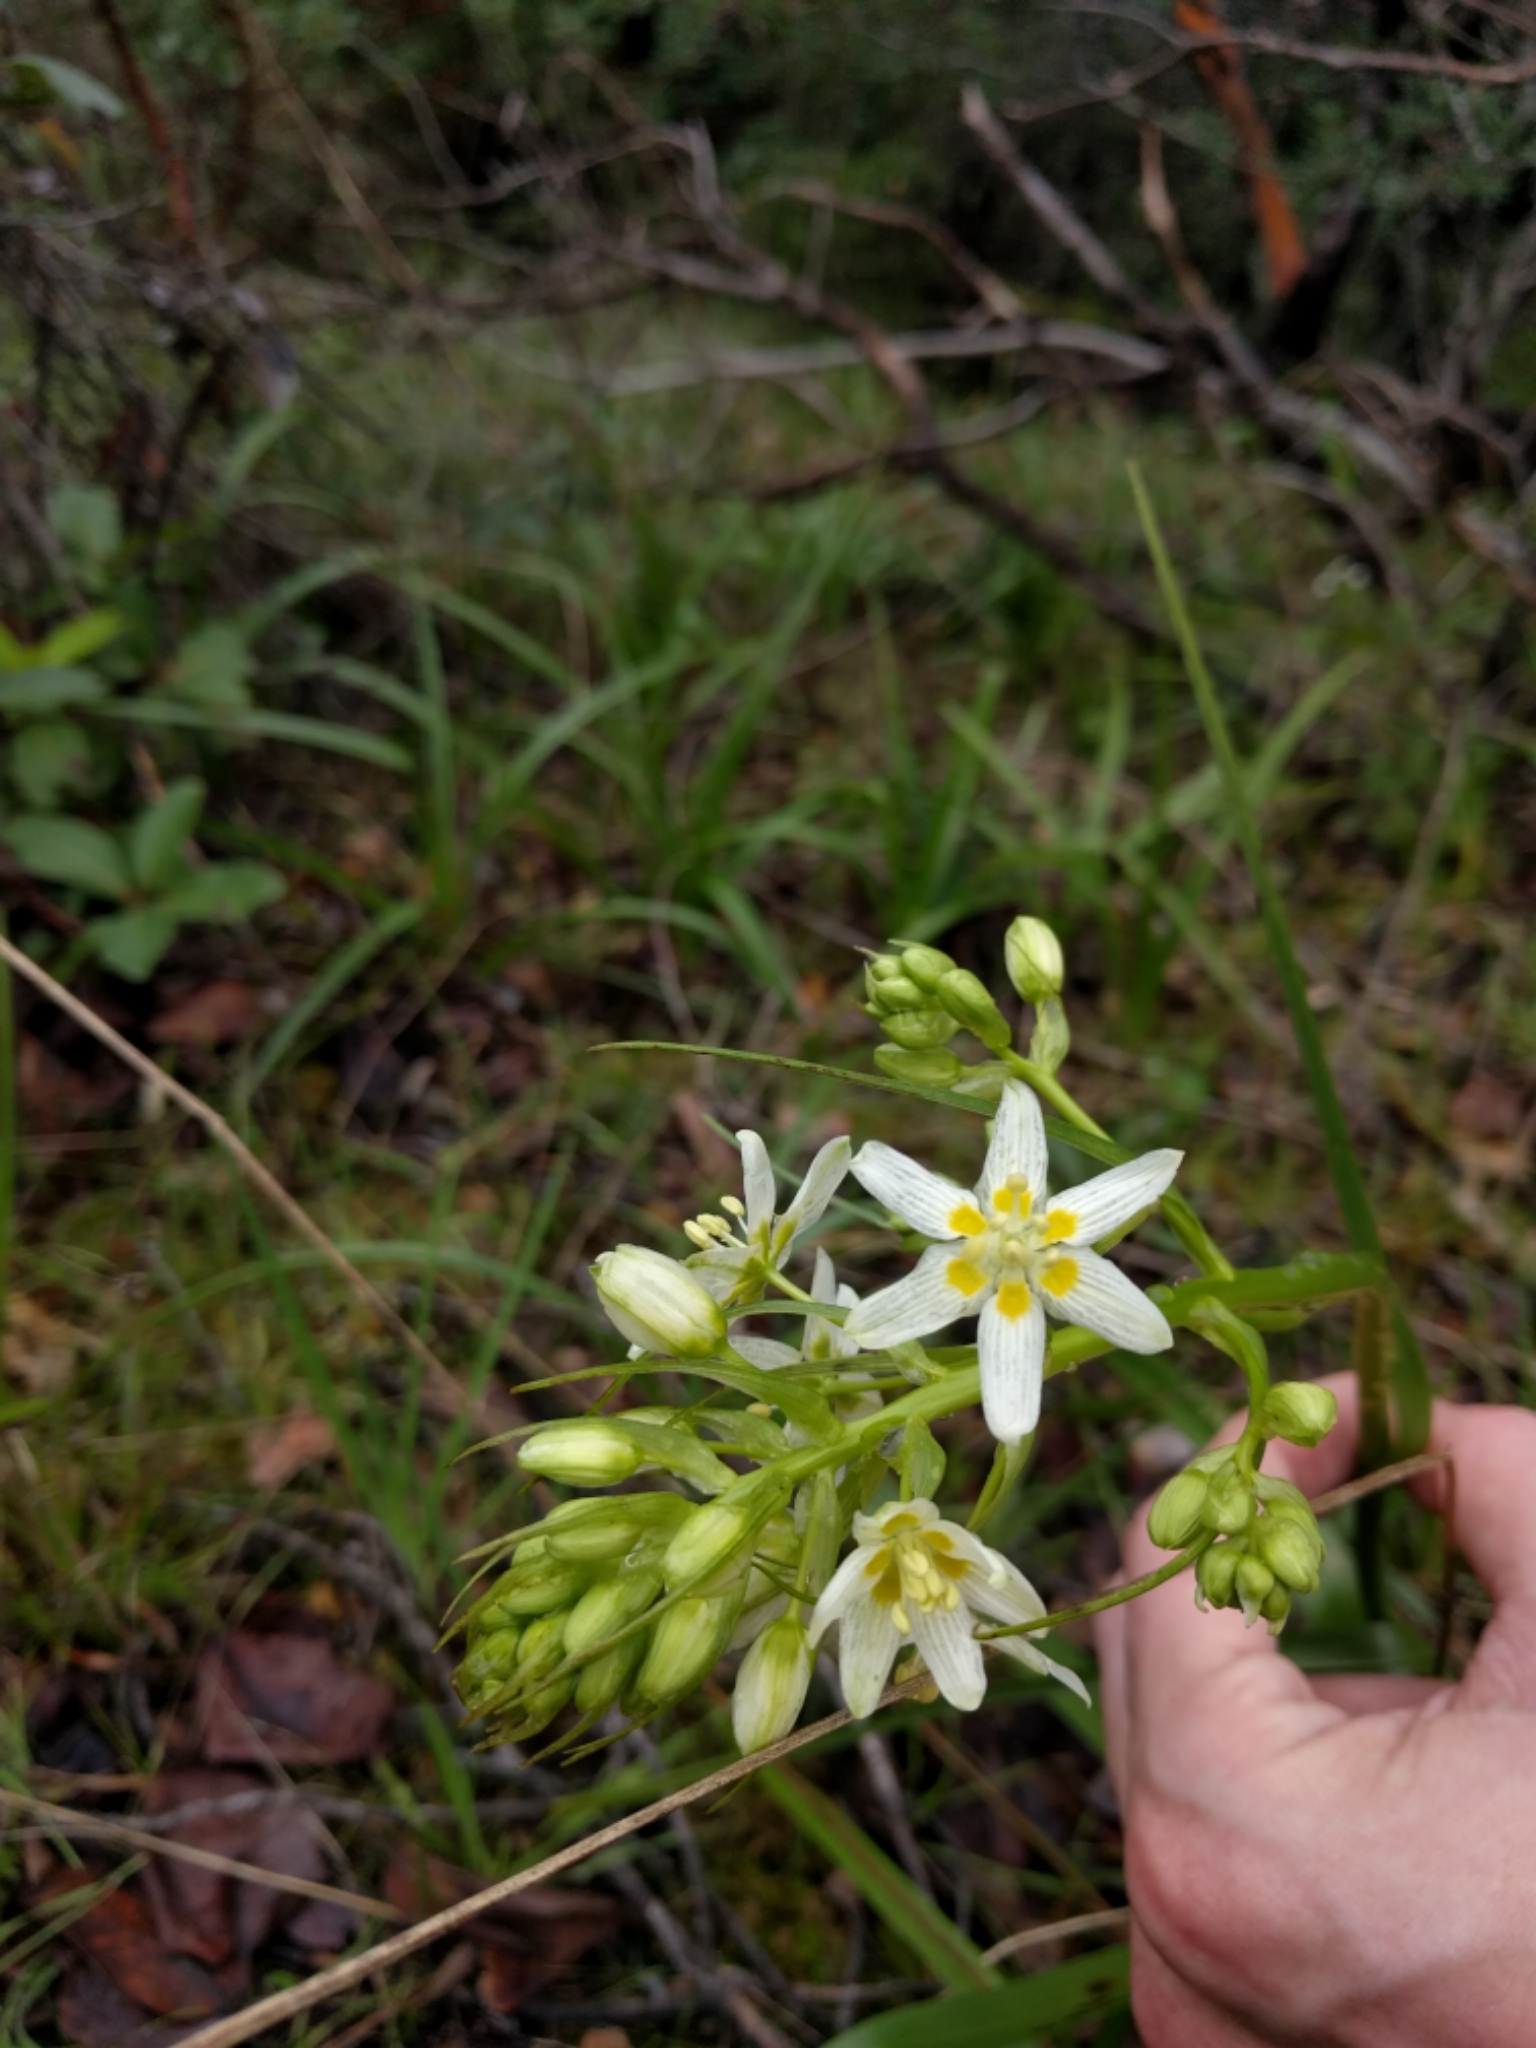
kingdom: Plantae
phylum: Tracheophyta
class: Liliopsida
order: Liliales
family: Melanthiaceae
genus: Toxicoscordion
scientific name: Toxicoscordion fremontii
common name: Fremont's death camas
